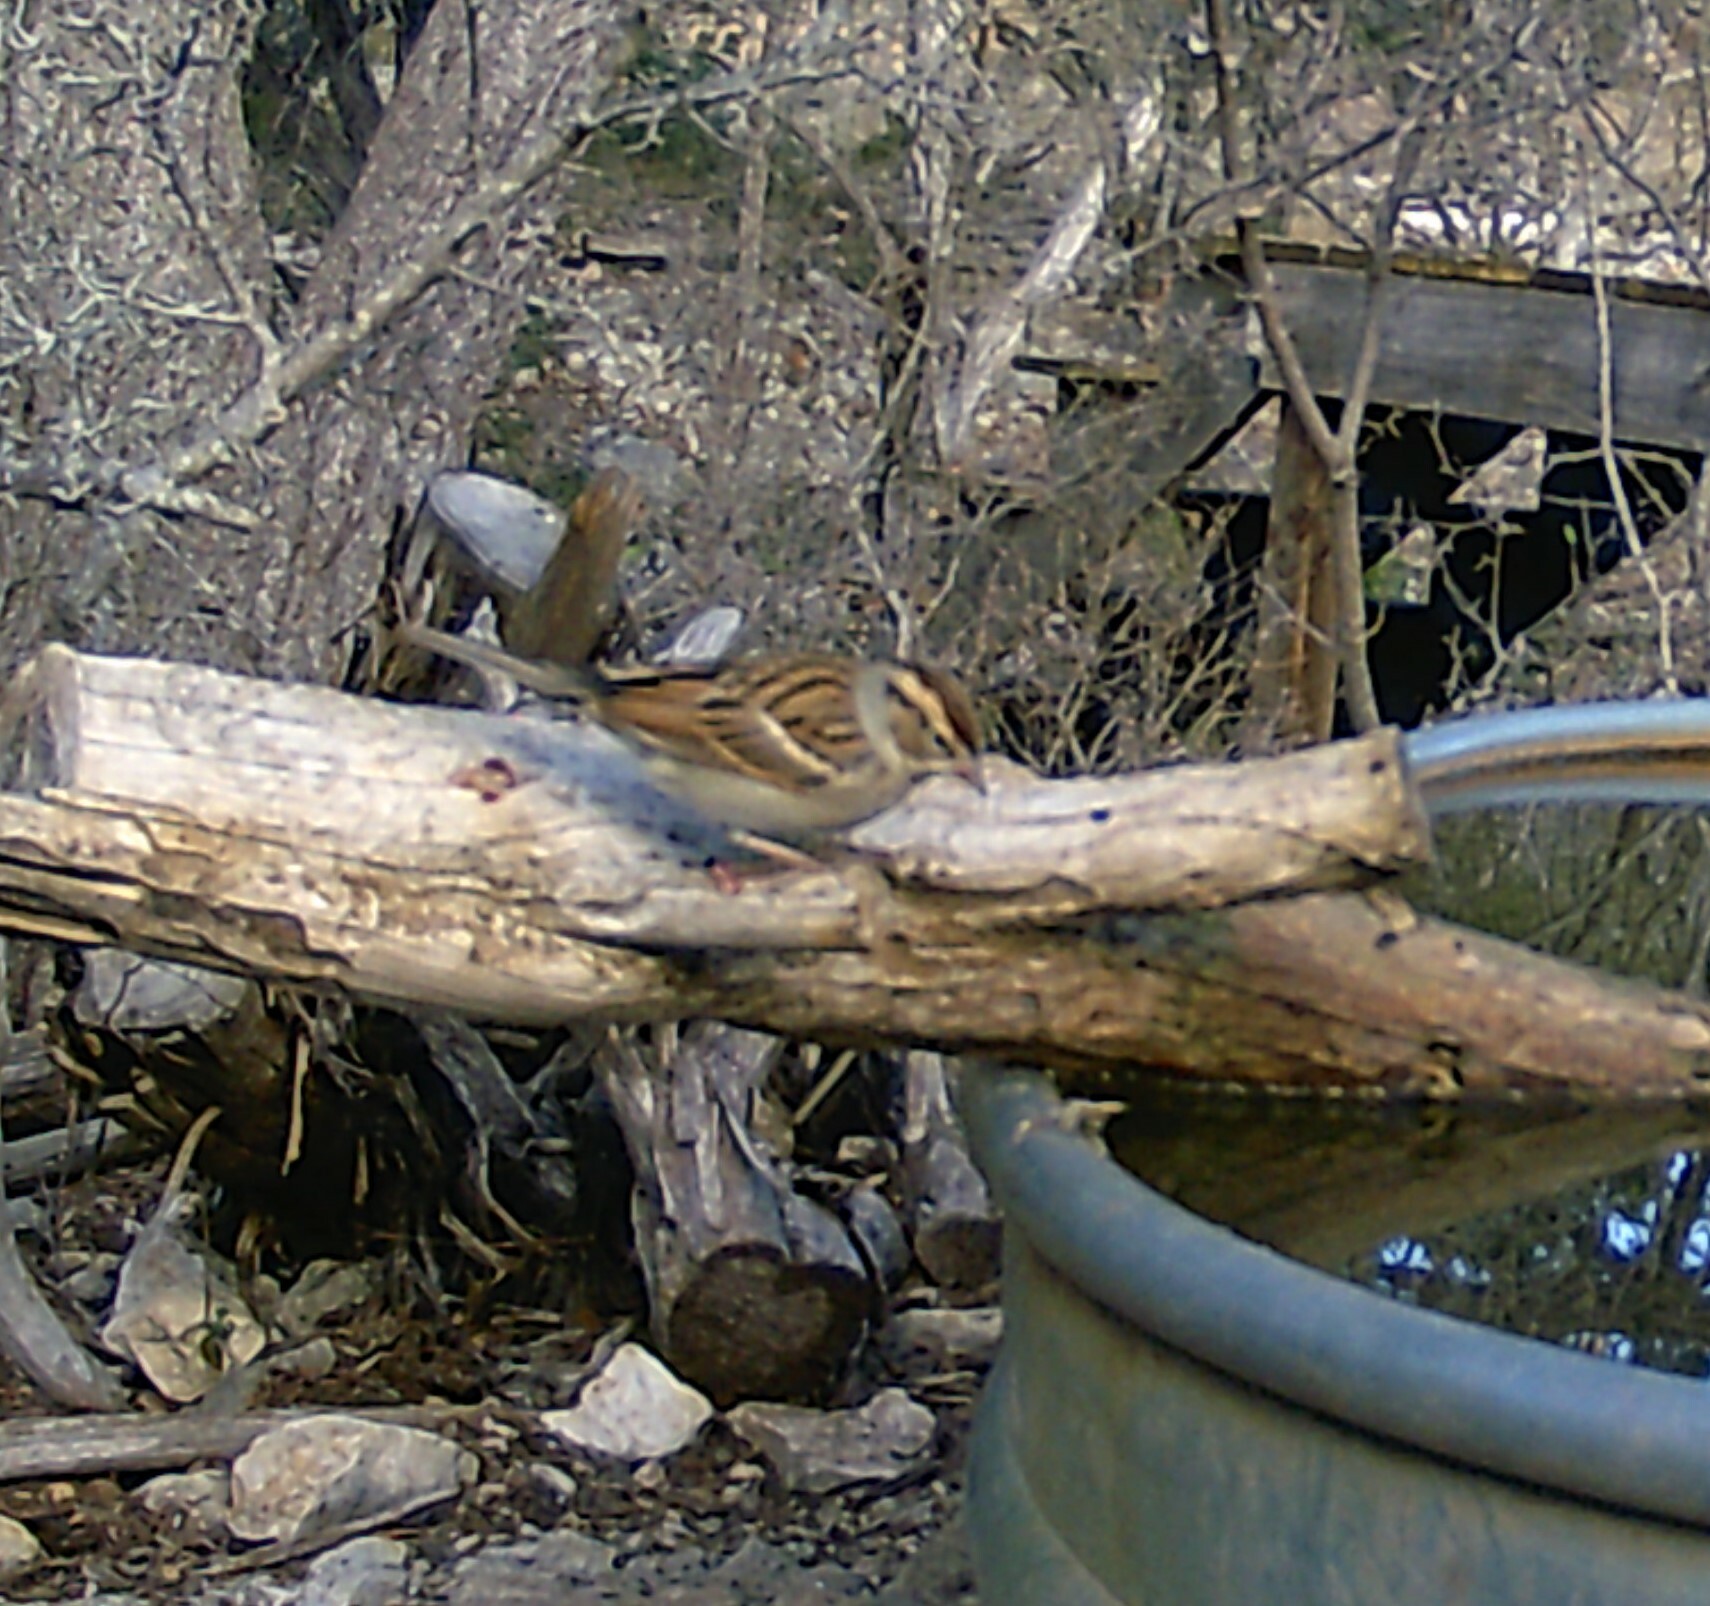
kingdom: Animalia
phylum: Chordata
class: Aves
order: Passeriformes
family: Passerellidae
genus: Spizella
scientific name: Spizella passerina
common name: Chipping sparrow
